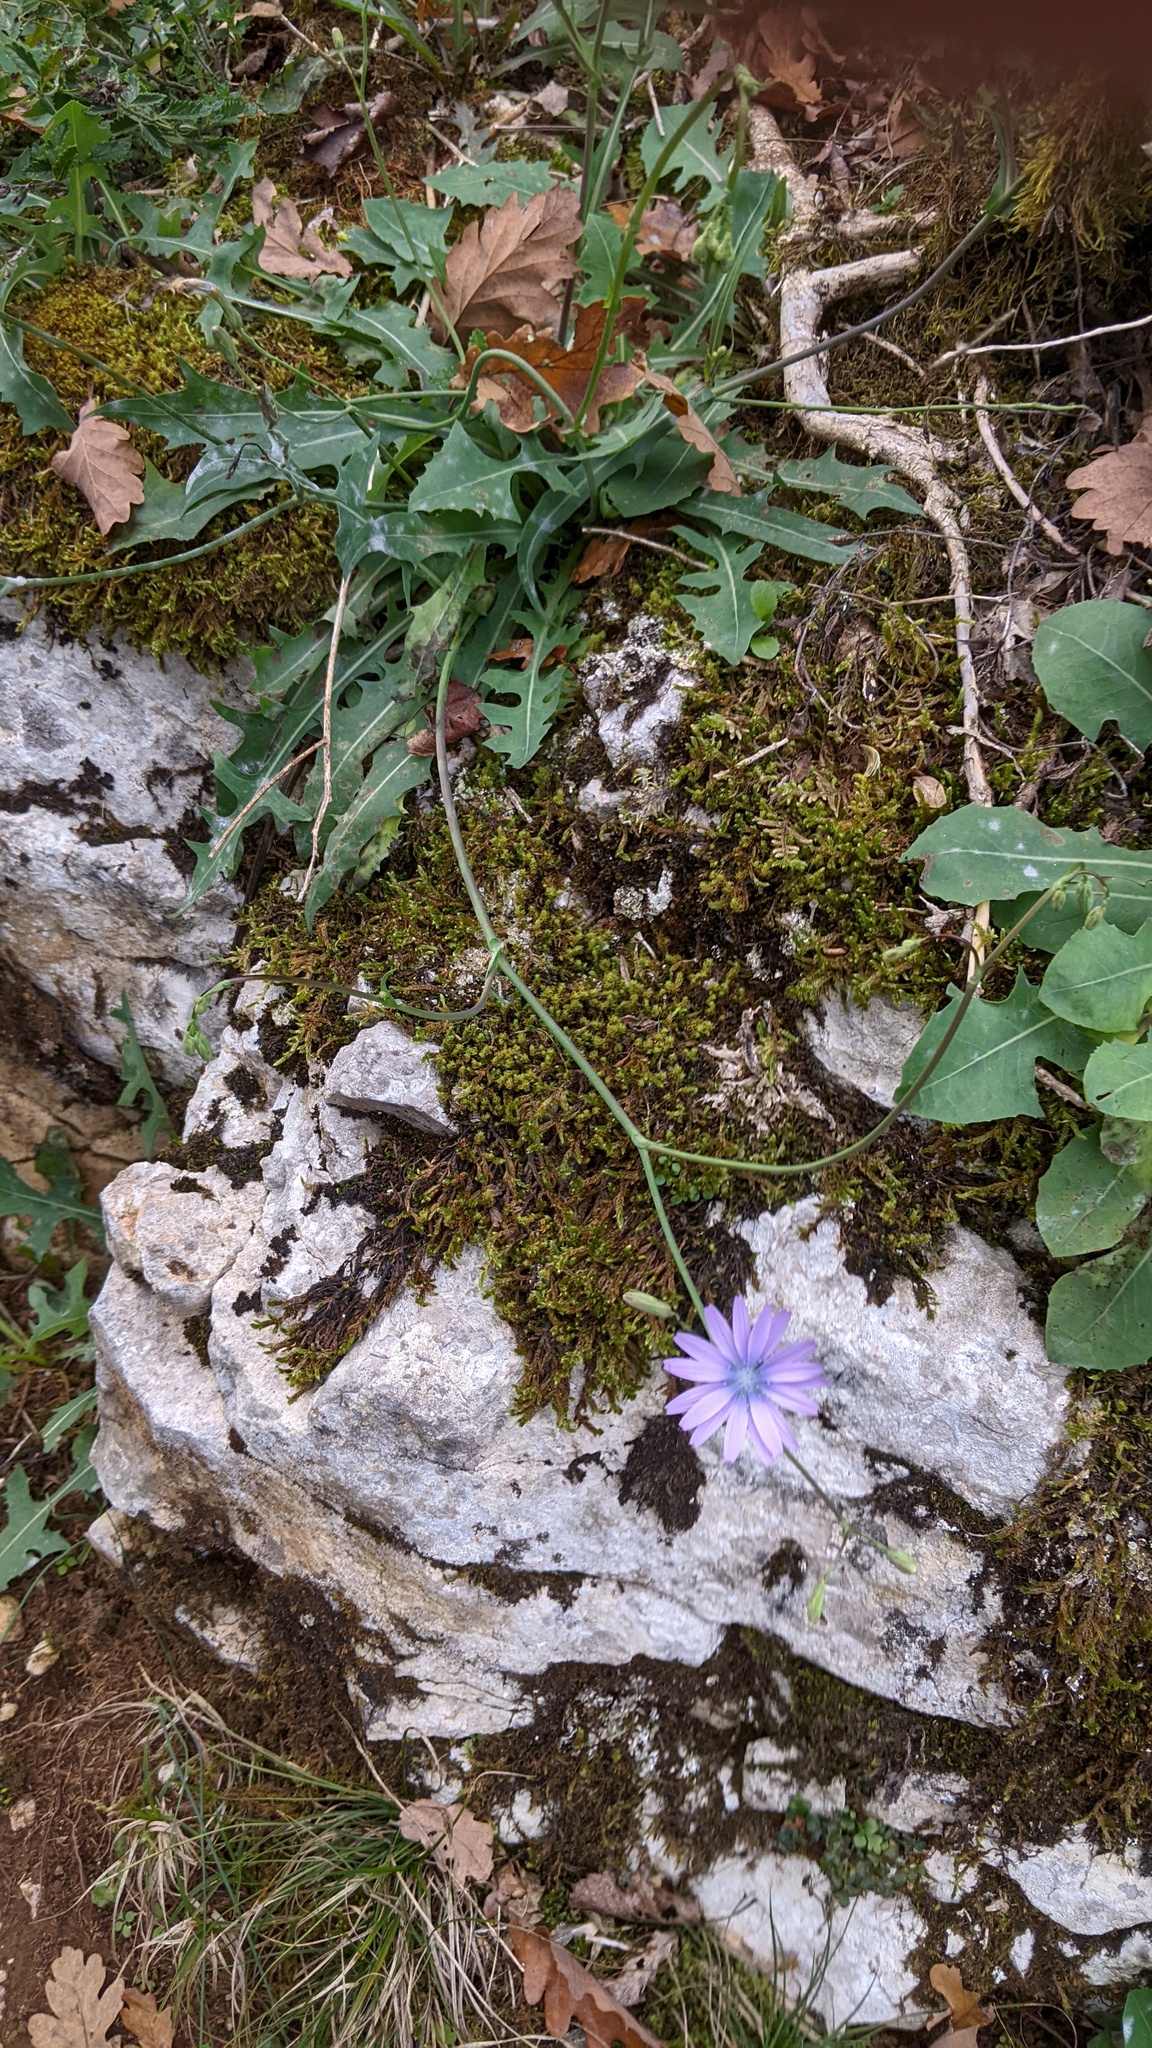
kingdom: Plantae
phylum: Tracheophyta
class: Magnoliopsida
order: Asterales
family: Asteraceae
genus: Lactuca
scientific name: Lactuca perennis
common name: Mountain lettuce
